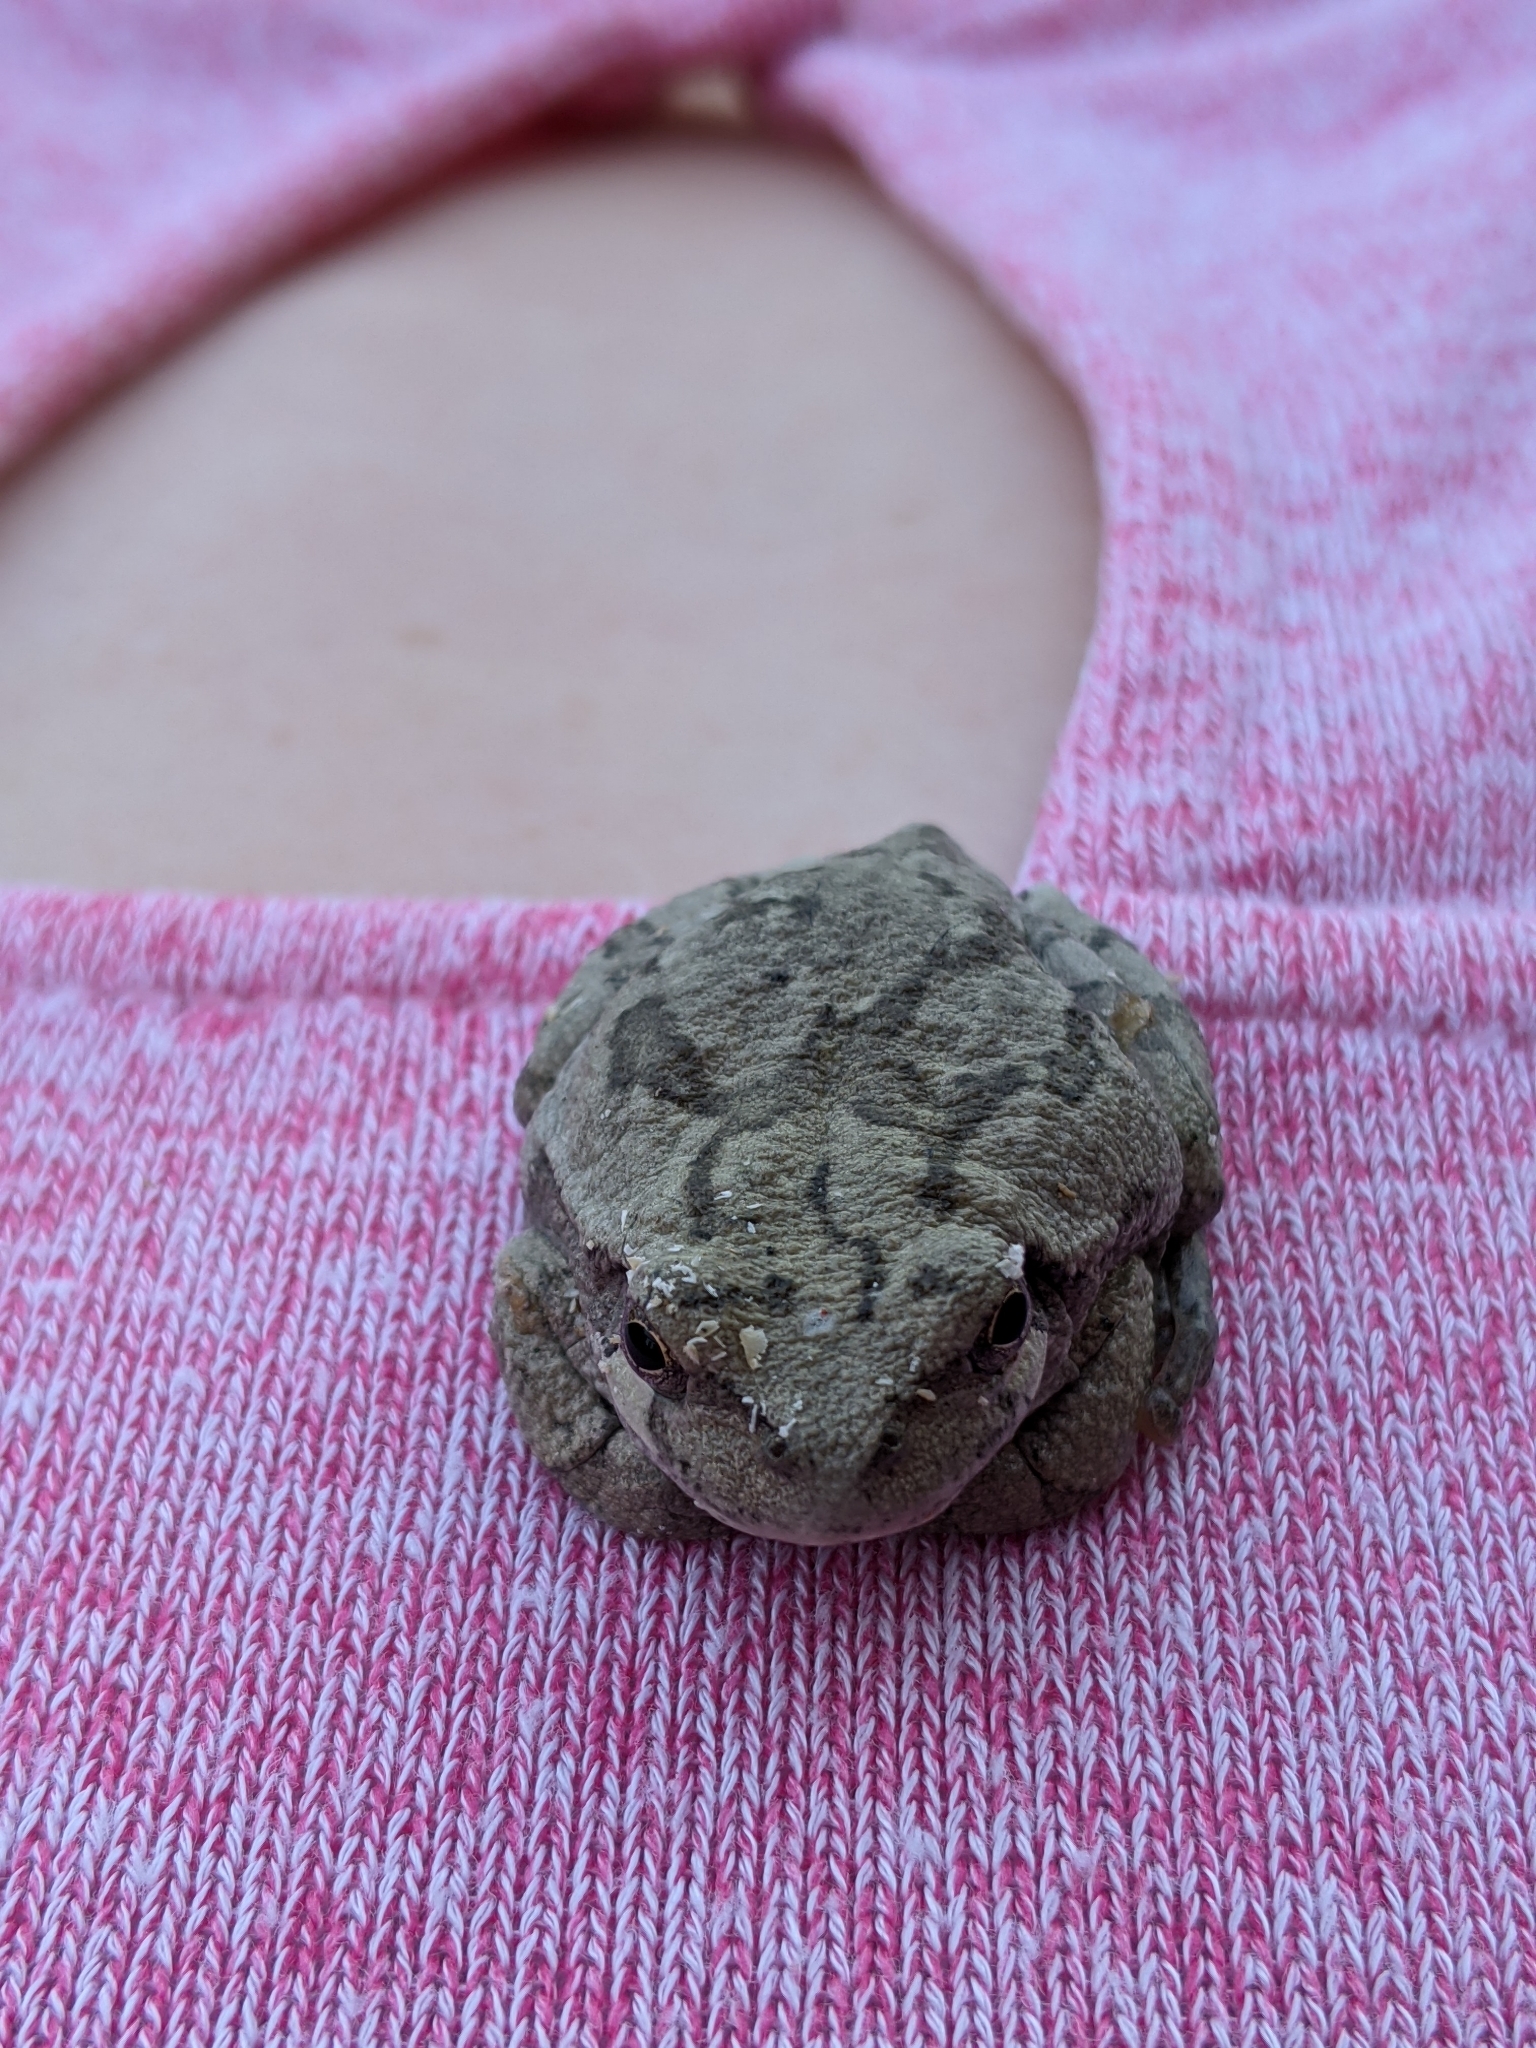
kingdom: Animalia
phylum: Chordata
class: Amphibia
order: Anura
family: Hylidae
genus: Dryophytes
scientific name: Dryophytes chrysoscelis
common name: Cope's gray treefrog
